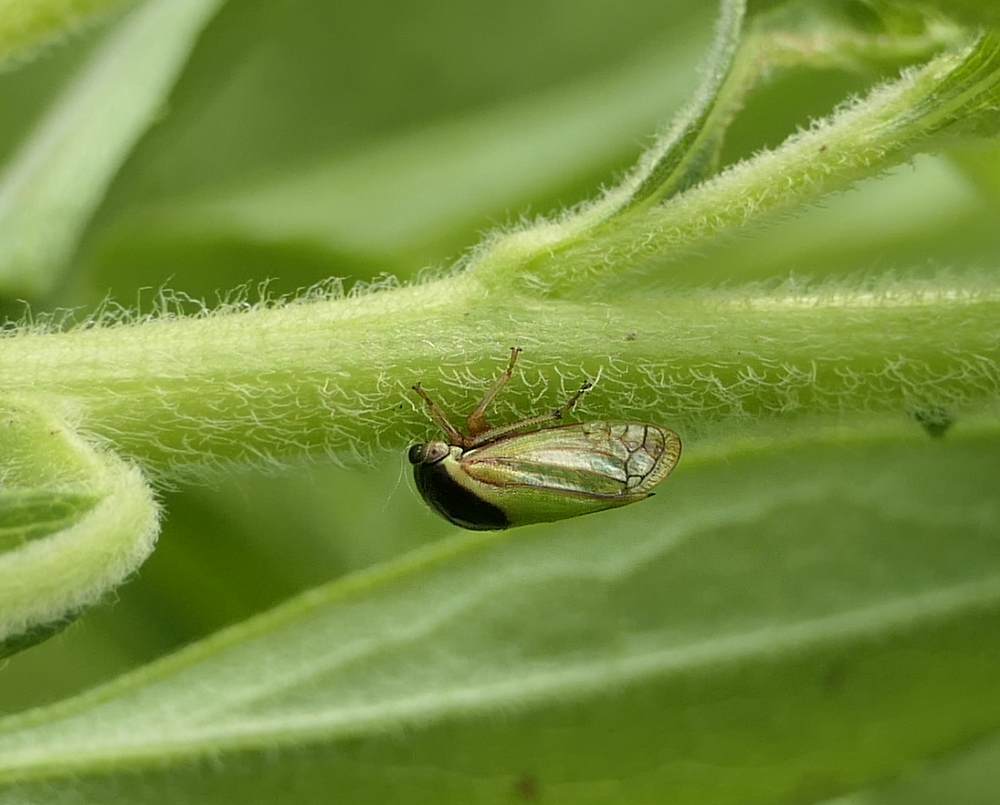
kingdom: Animalia
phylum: Arthropoda
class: Insecta
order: Hemiptera
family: Membracidae
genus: Acutalis
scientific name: Acutalis tartarea
